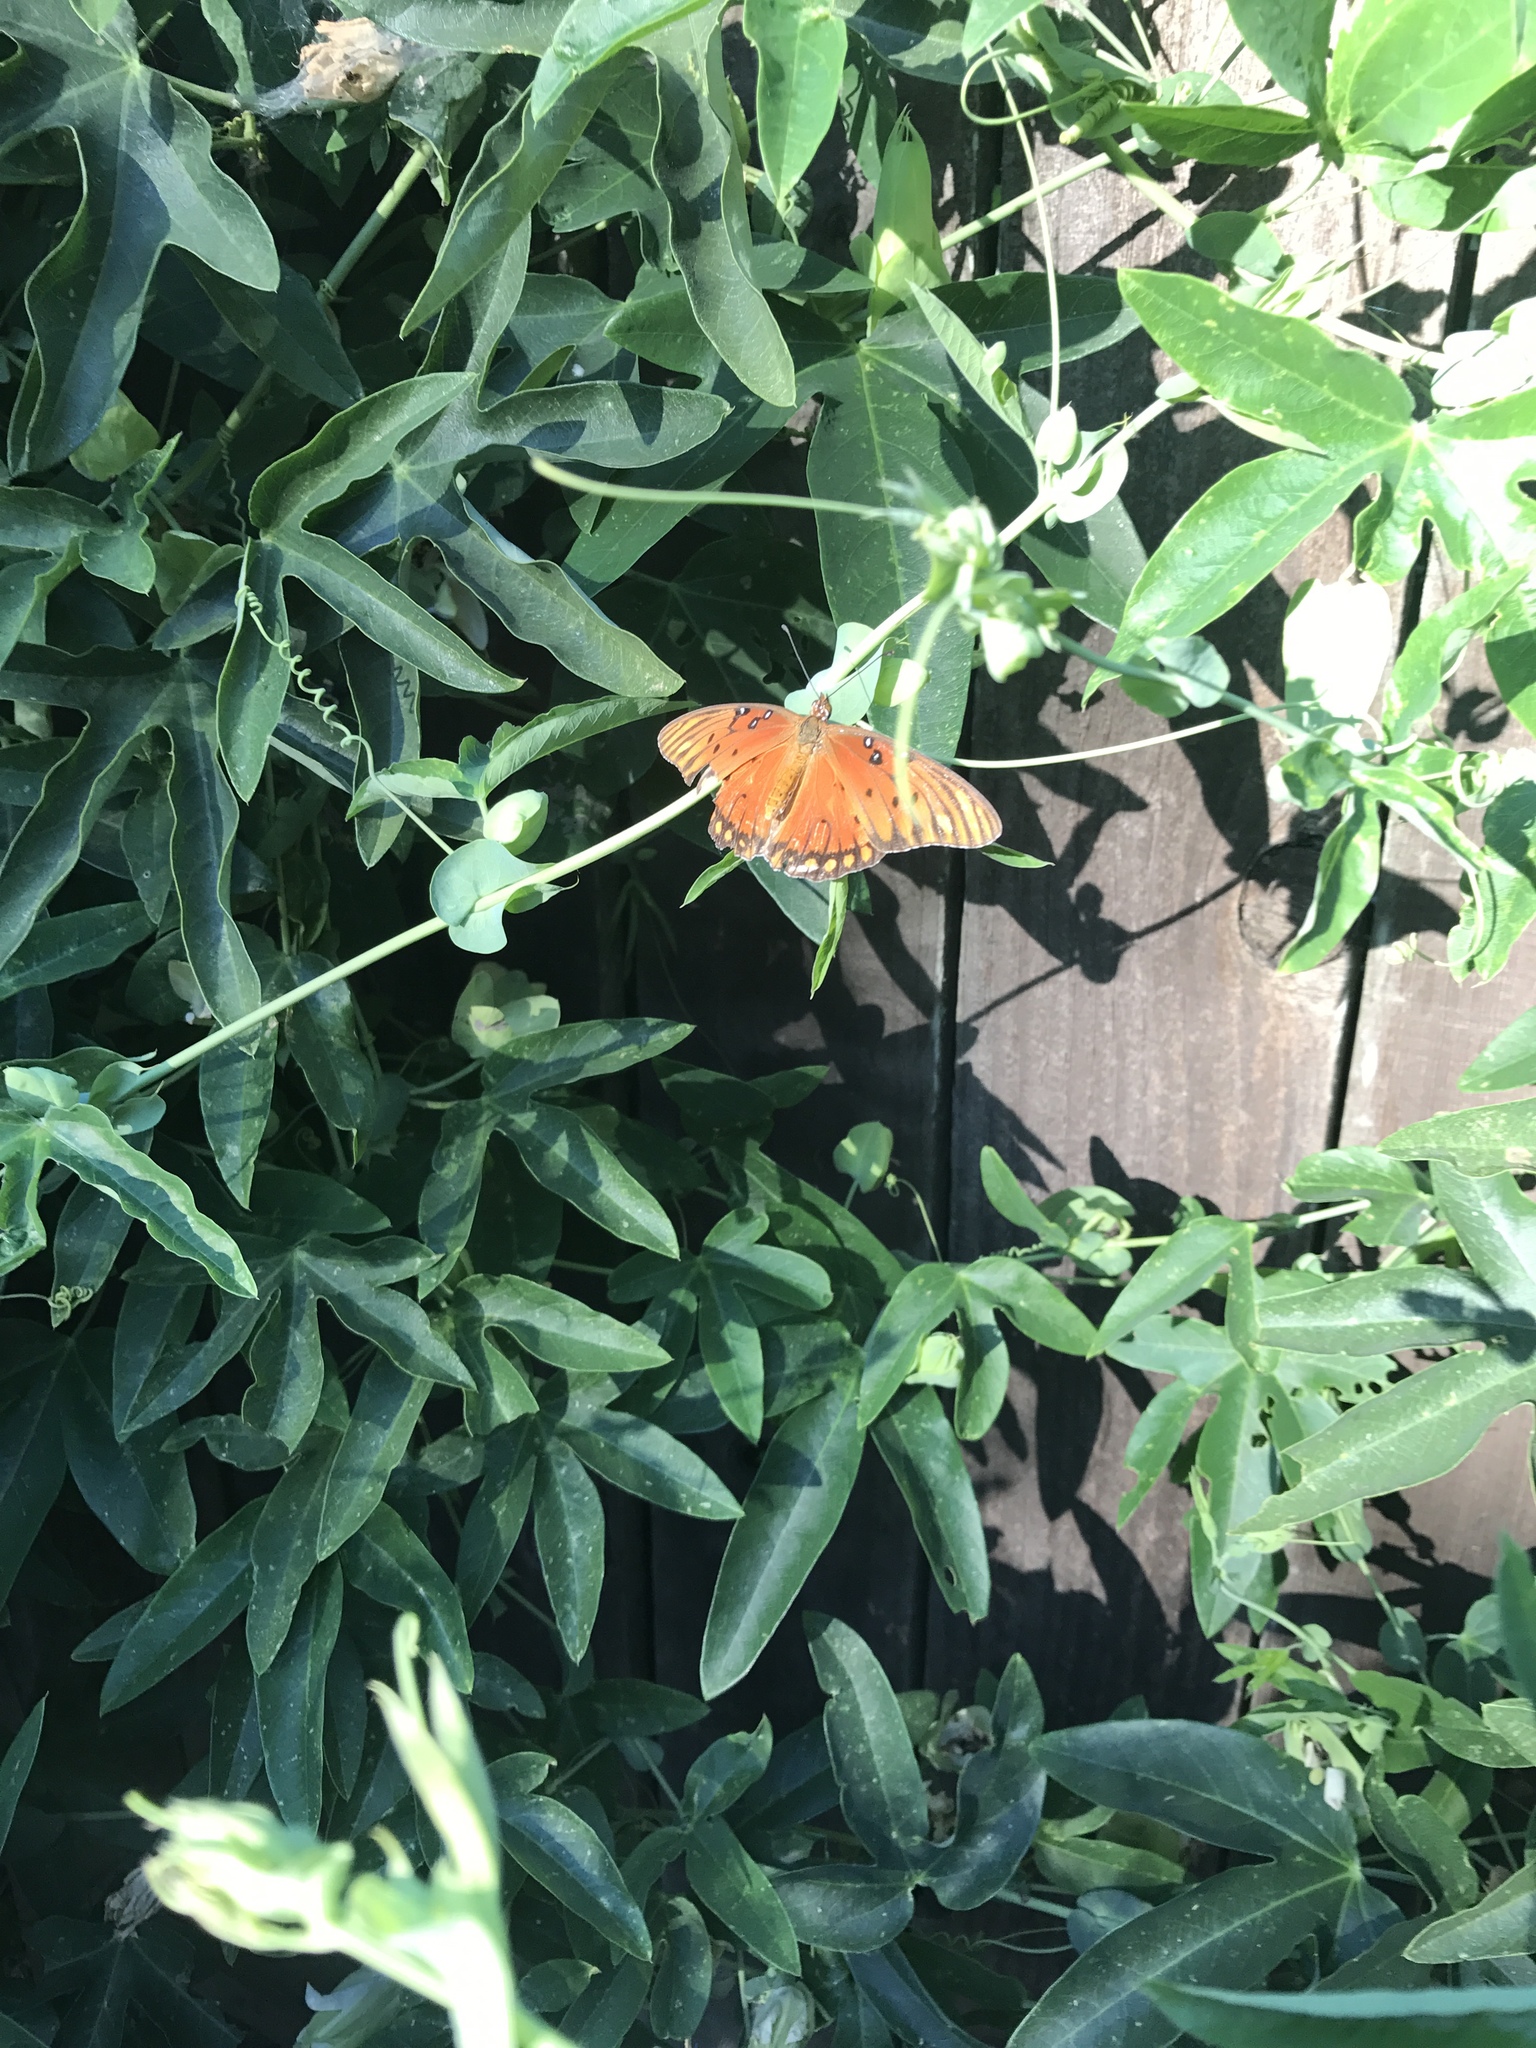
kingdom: Animalia
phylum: Arthropoda
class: Insecta
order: Lepidoptera
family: Nymphalidae
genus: Dione
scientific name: Dione vanillae
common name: Gulf fritillary
